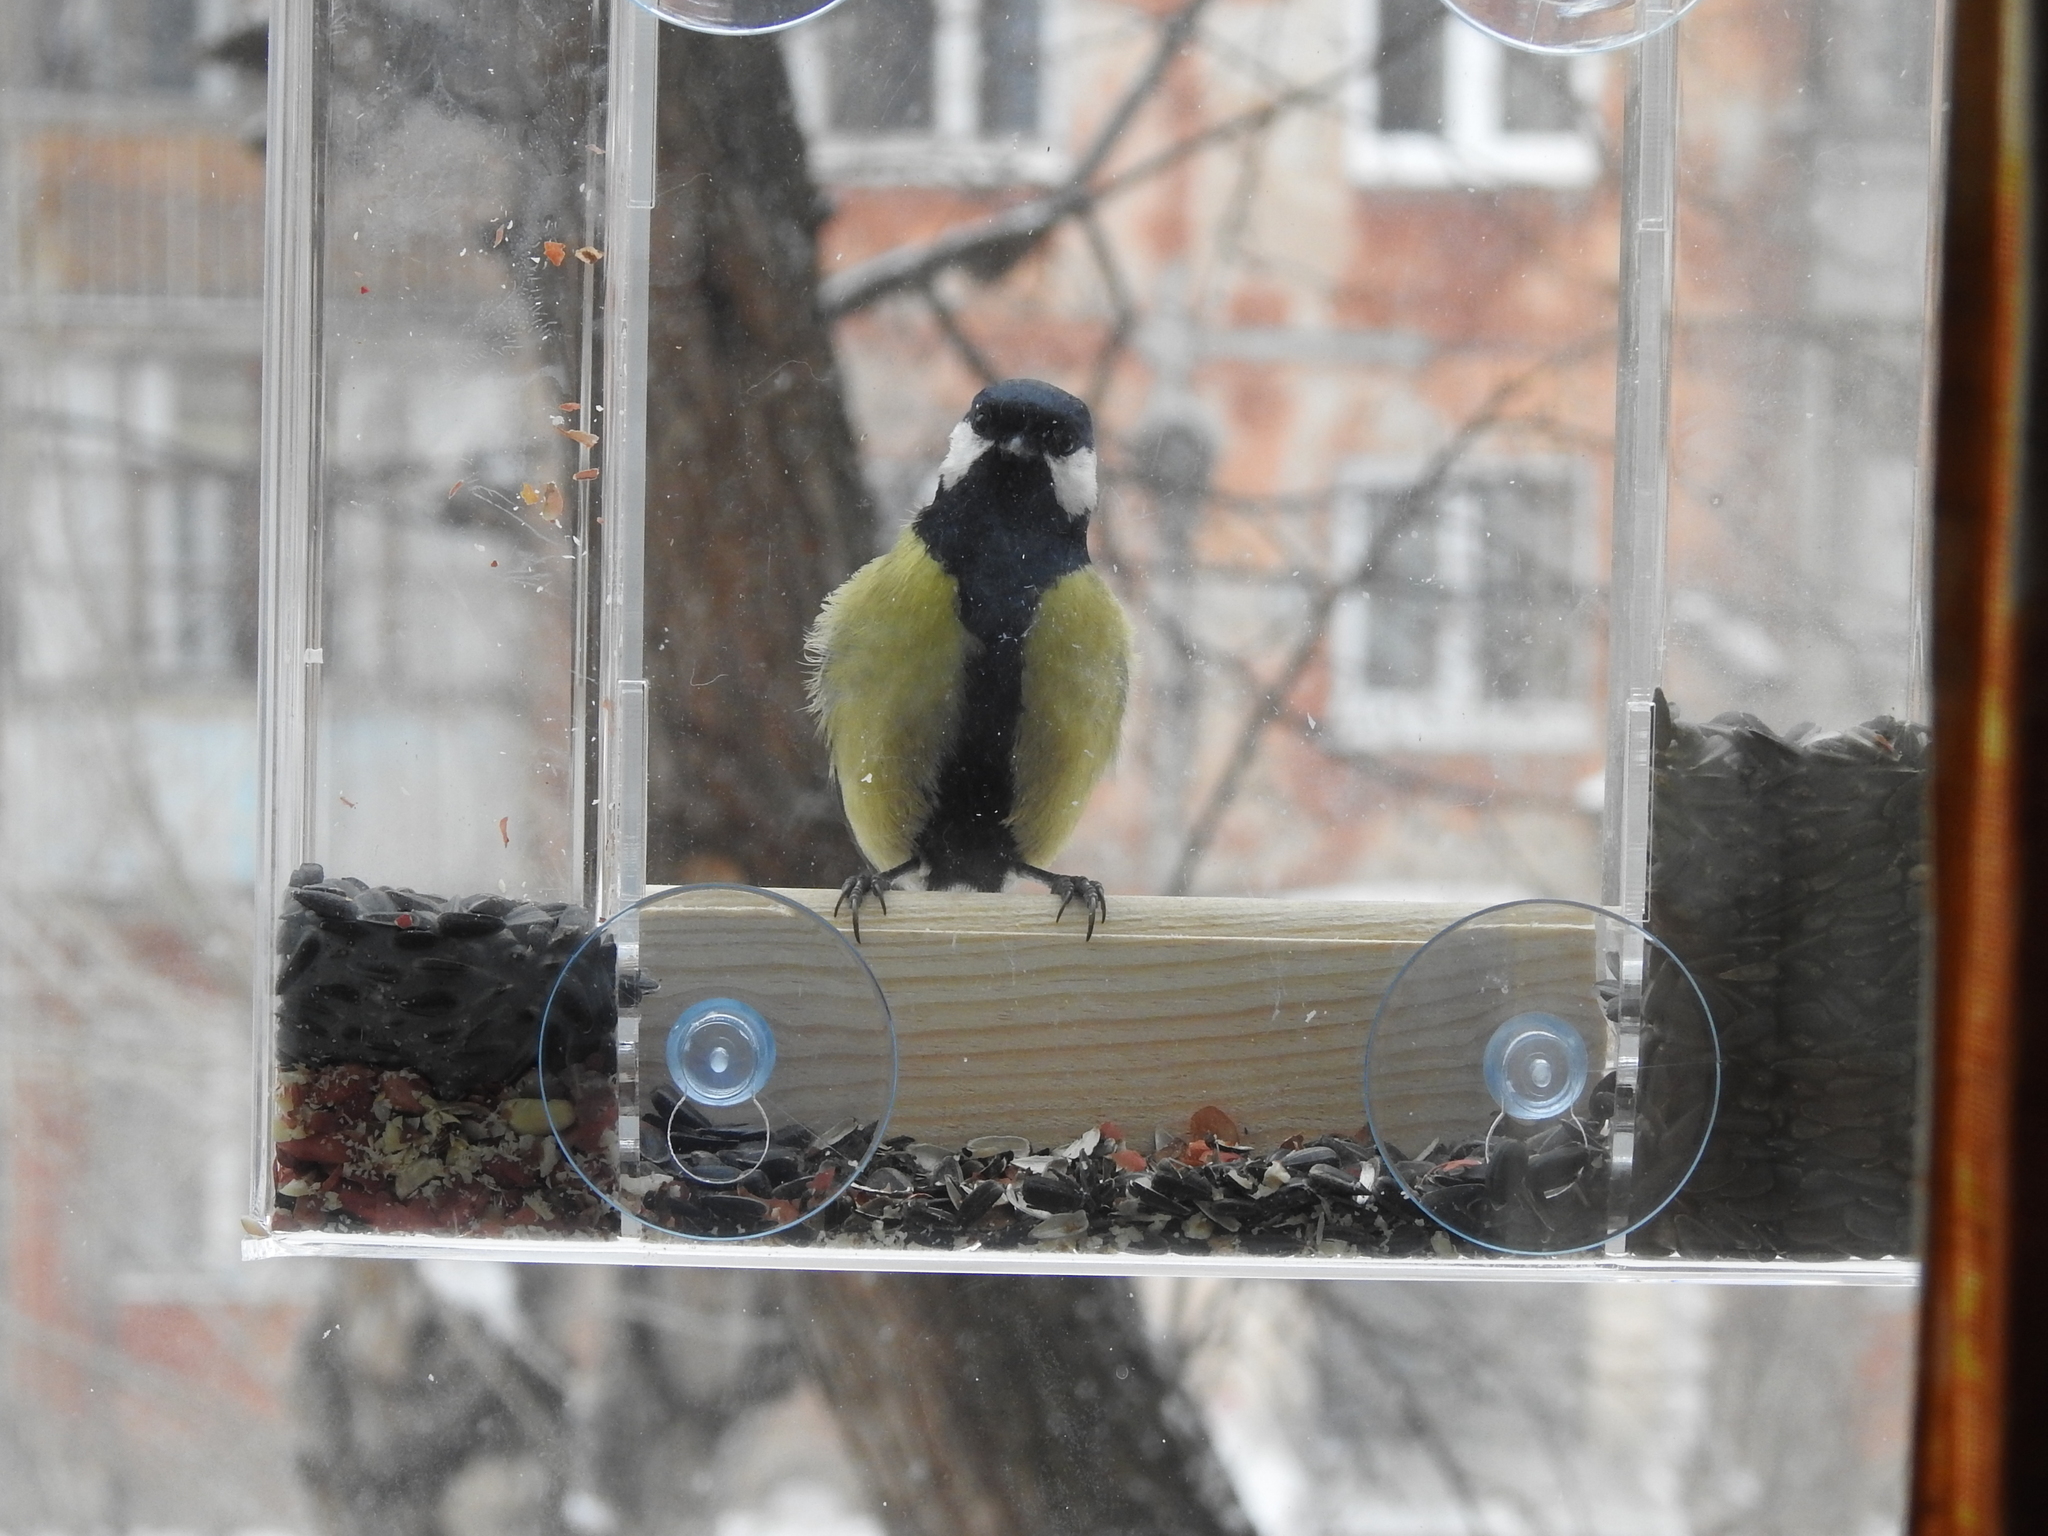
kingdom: Animalia
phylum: Chordata
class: Aves
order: Passeriformes
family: Paridae
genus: Parus
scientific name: Parus major
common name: Great tit
